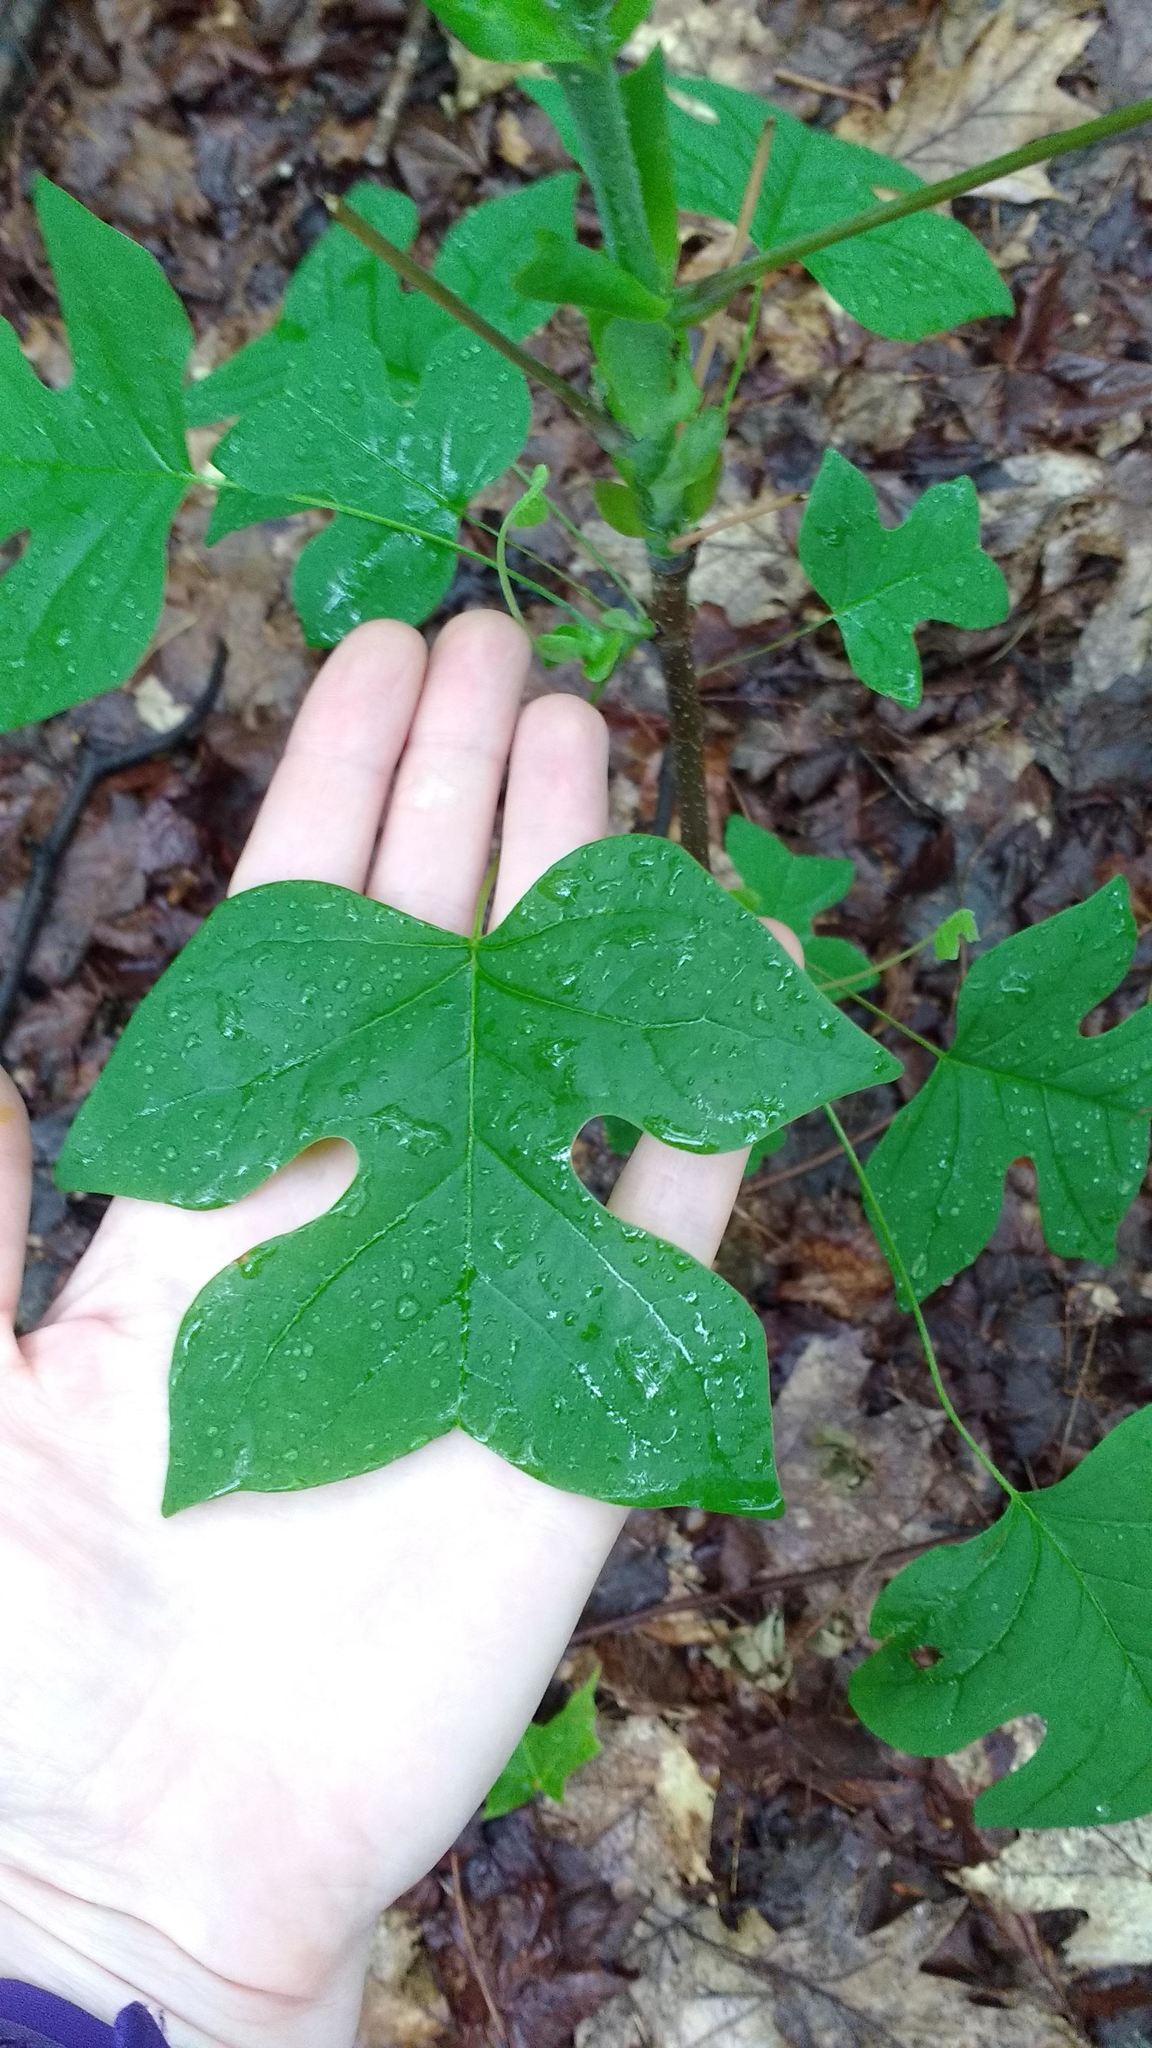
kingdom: Plantae
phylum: Tracheophyta
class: Magnoliopsida
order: Magnoliales
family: Magnoliaceae
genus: Liriodendron
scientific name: Liriodendron tulipifera
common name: Tulip tree
